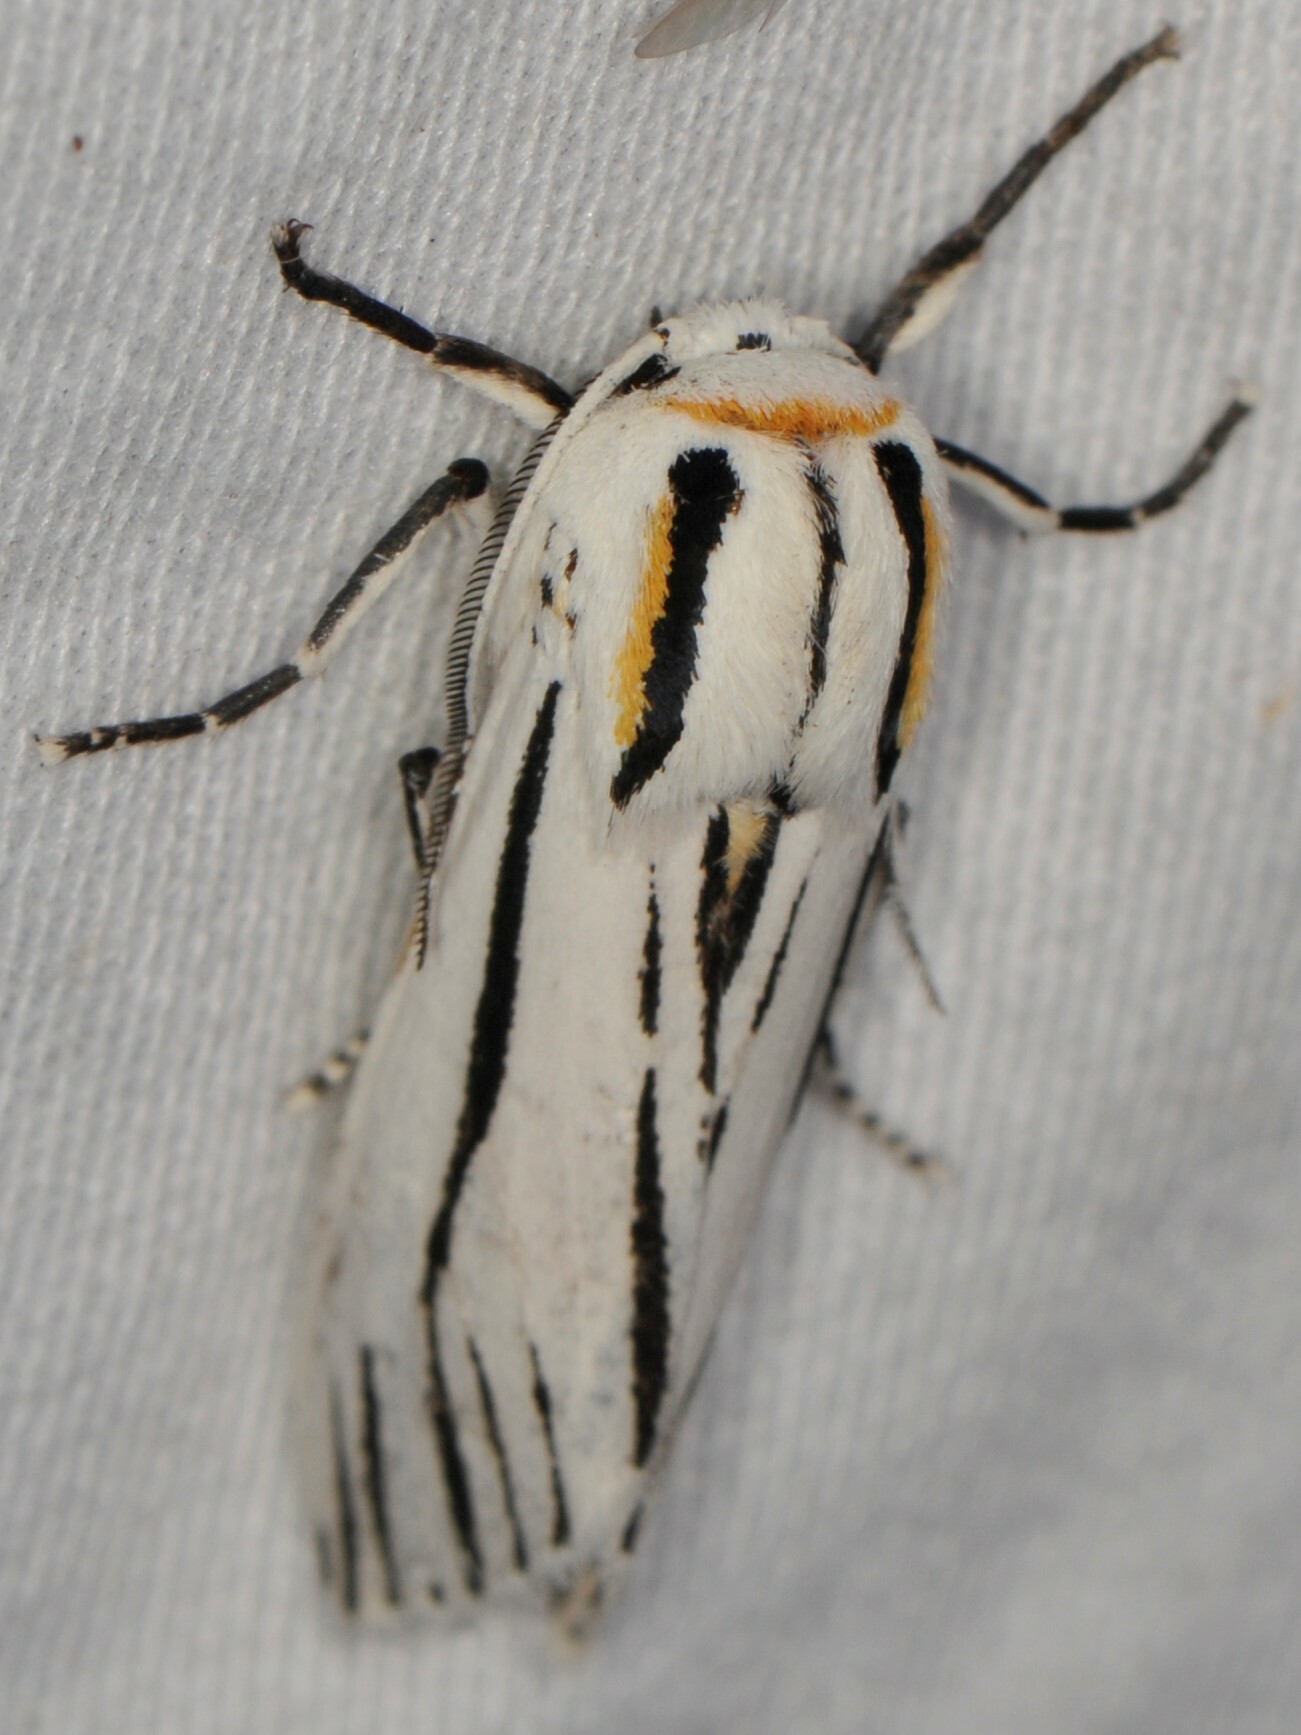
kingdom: Animalia
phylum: Arthropoda
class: Insecta
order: Lepidoptera
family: Erebidae
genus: Ectypia
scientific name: Ectypia clio
